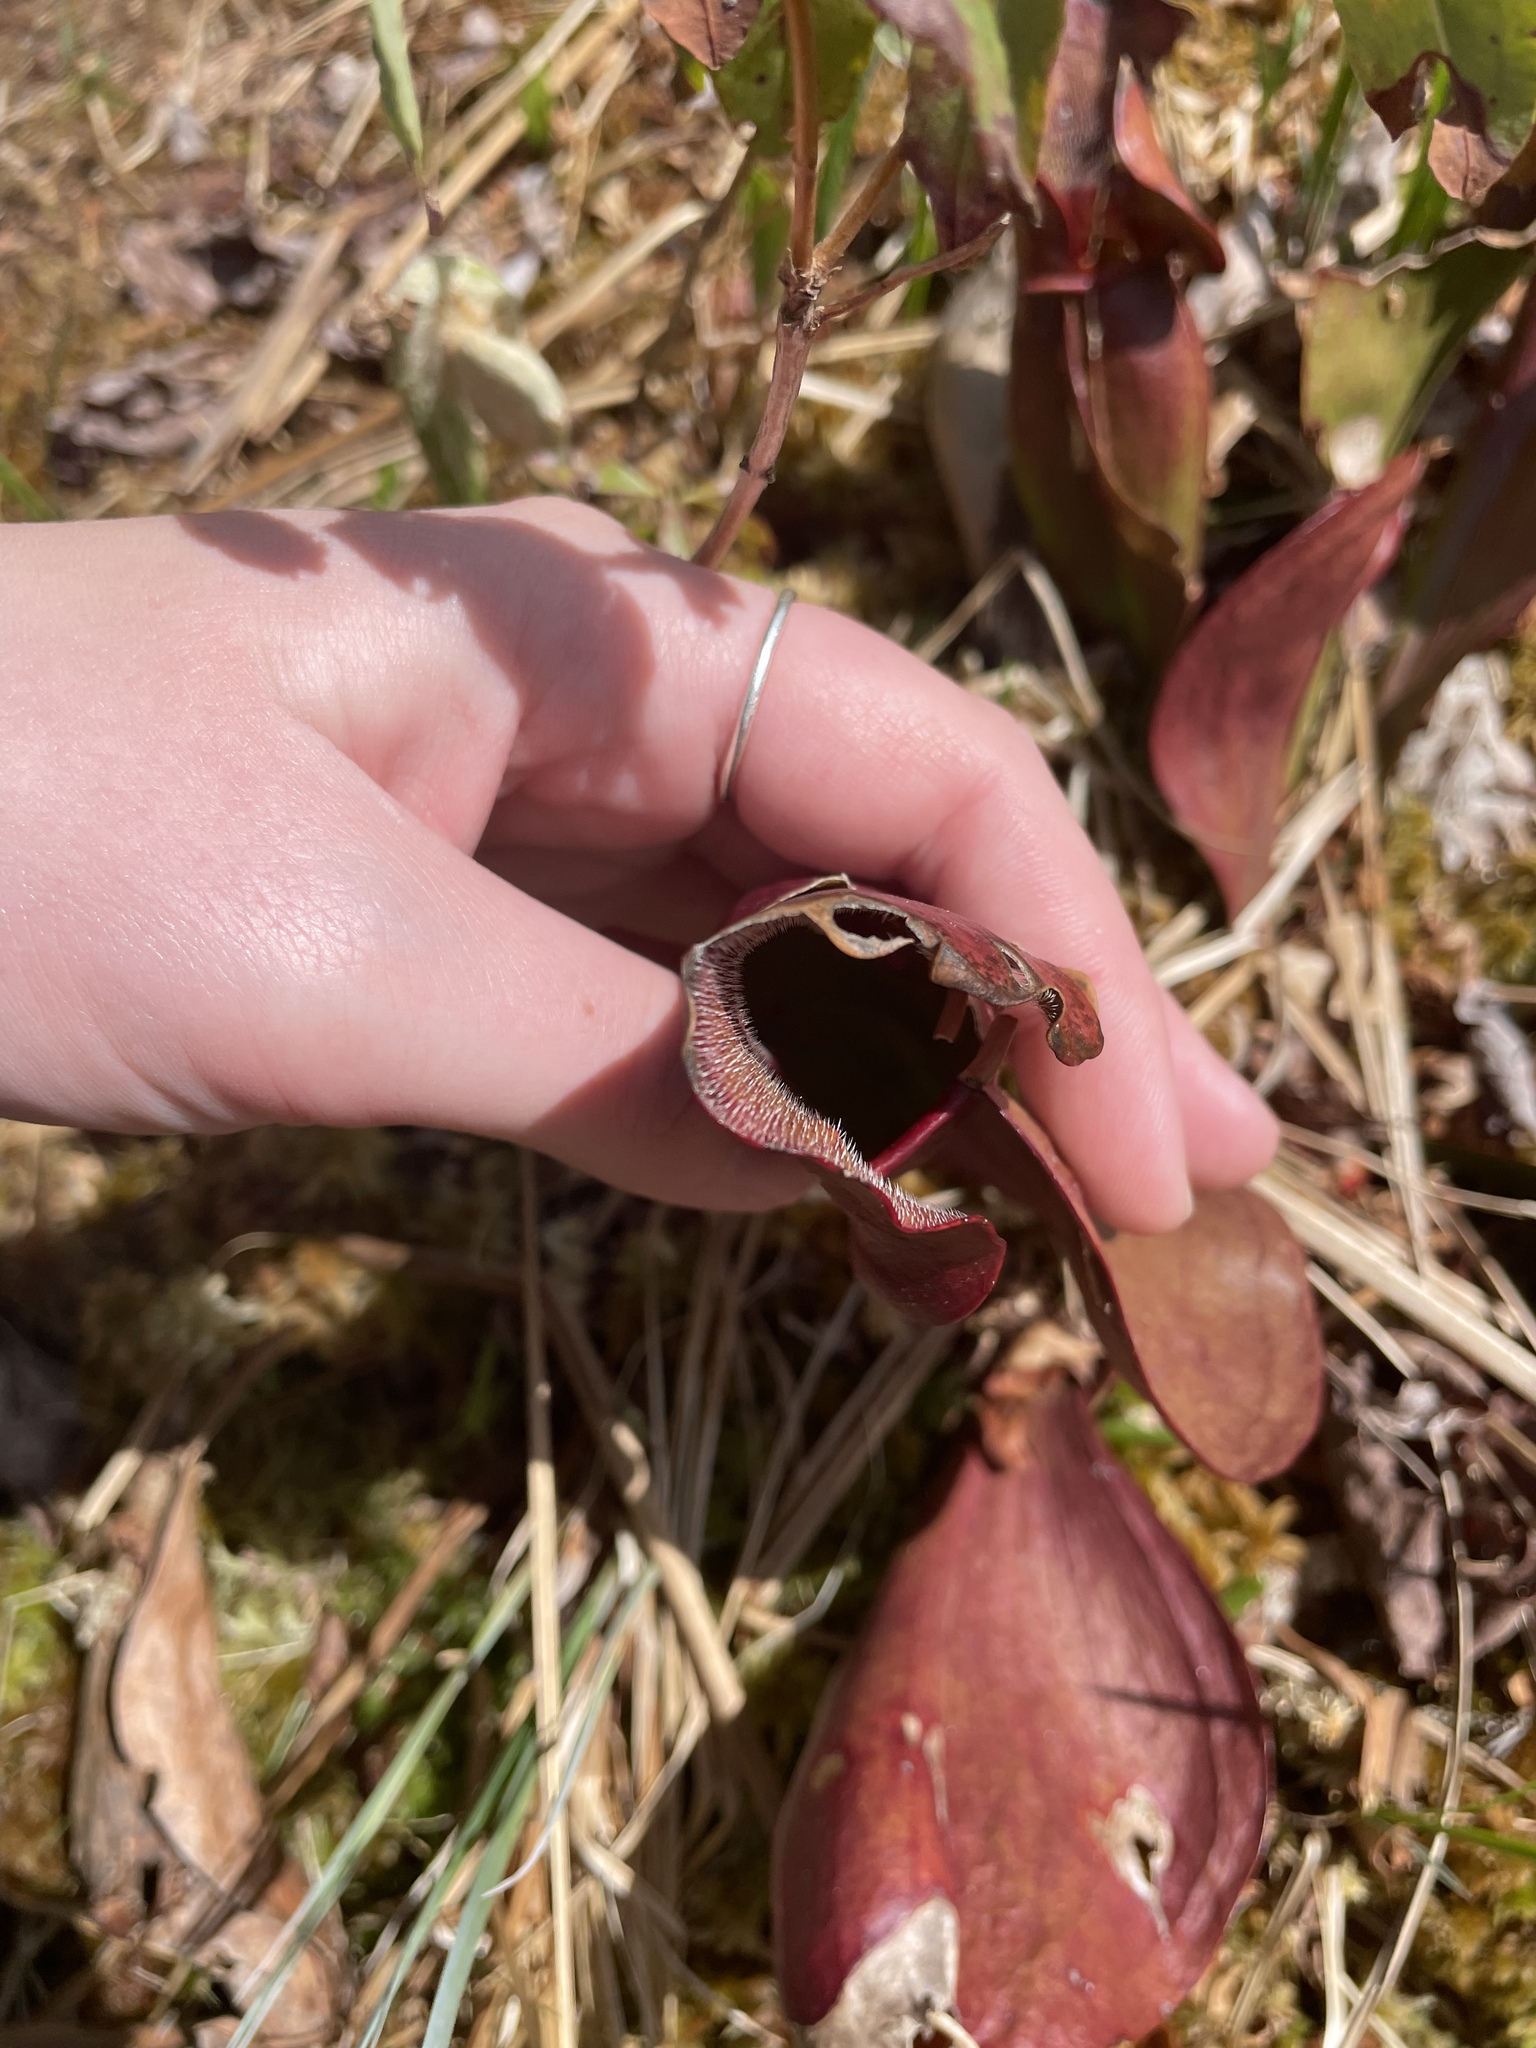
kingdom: Plantae
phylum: Tracheophyta
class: Magnoliopsida
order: Ericales
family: Sarraceniaceae
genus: Sarracenia
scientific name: Sarracenia purpurea
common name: Pitcherplant
